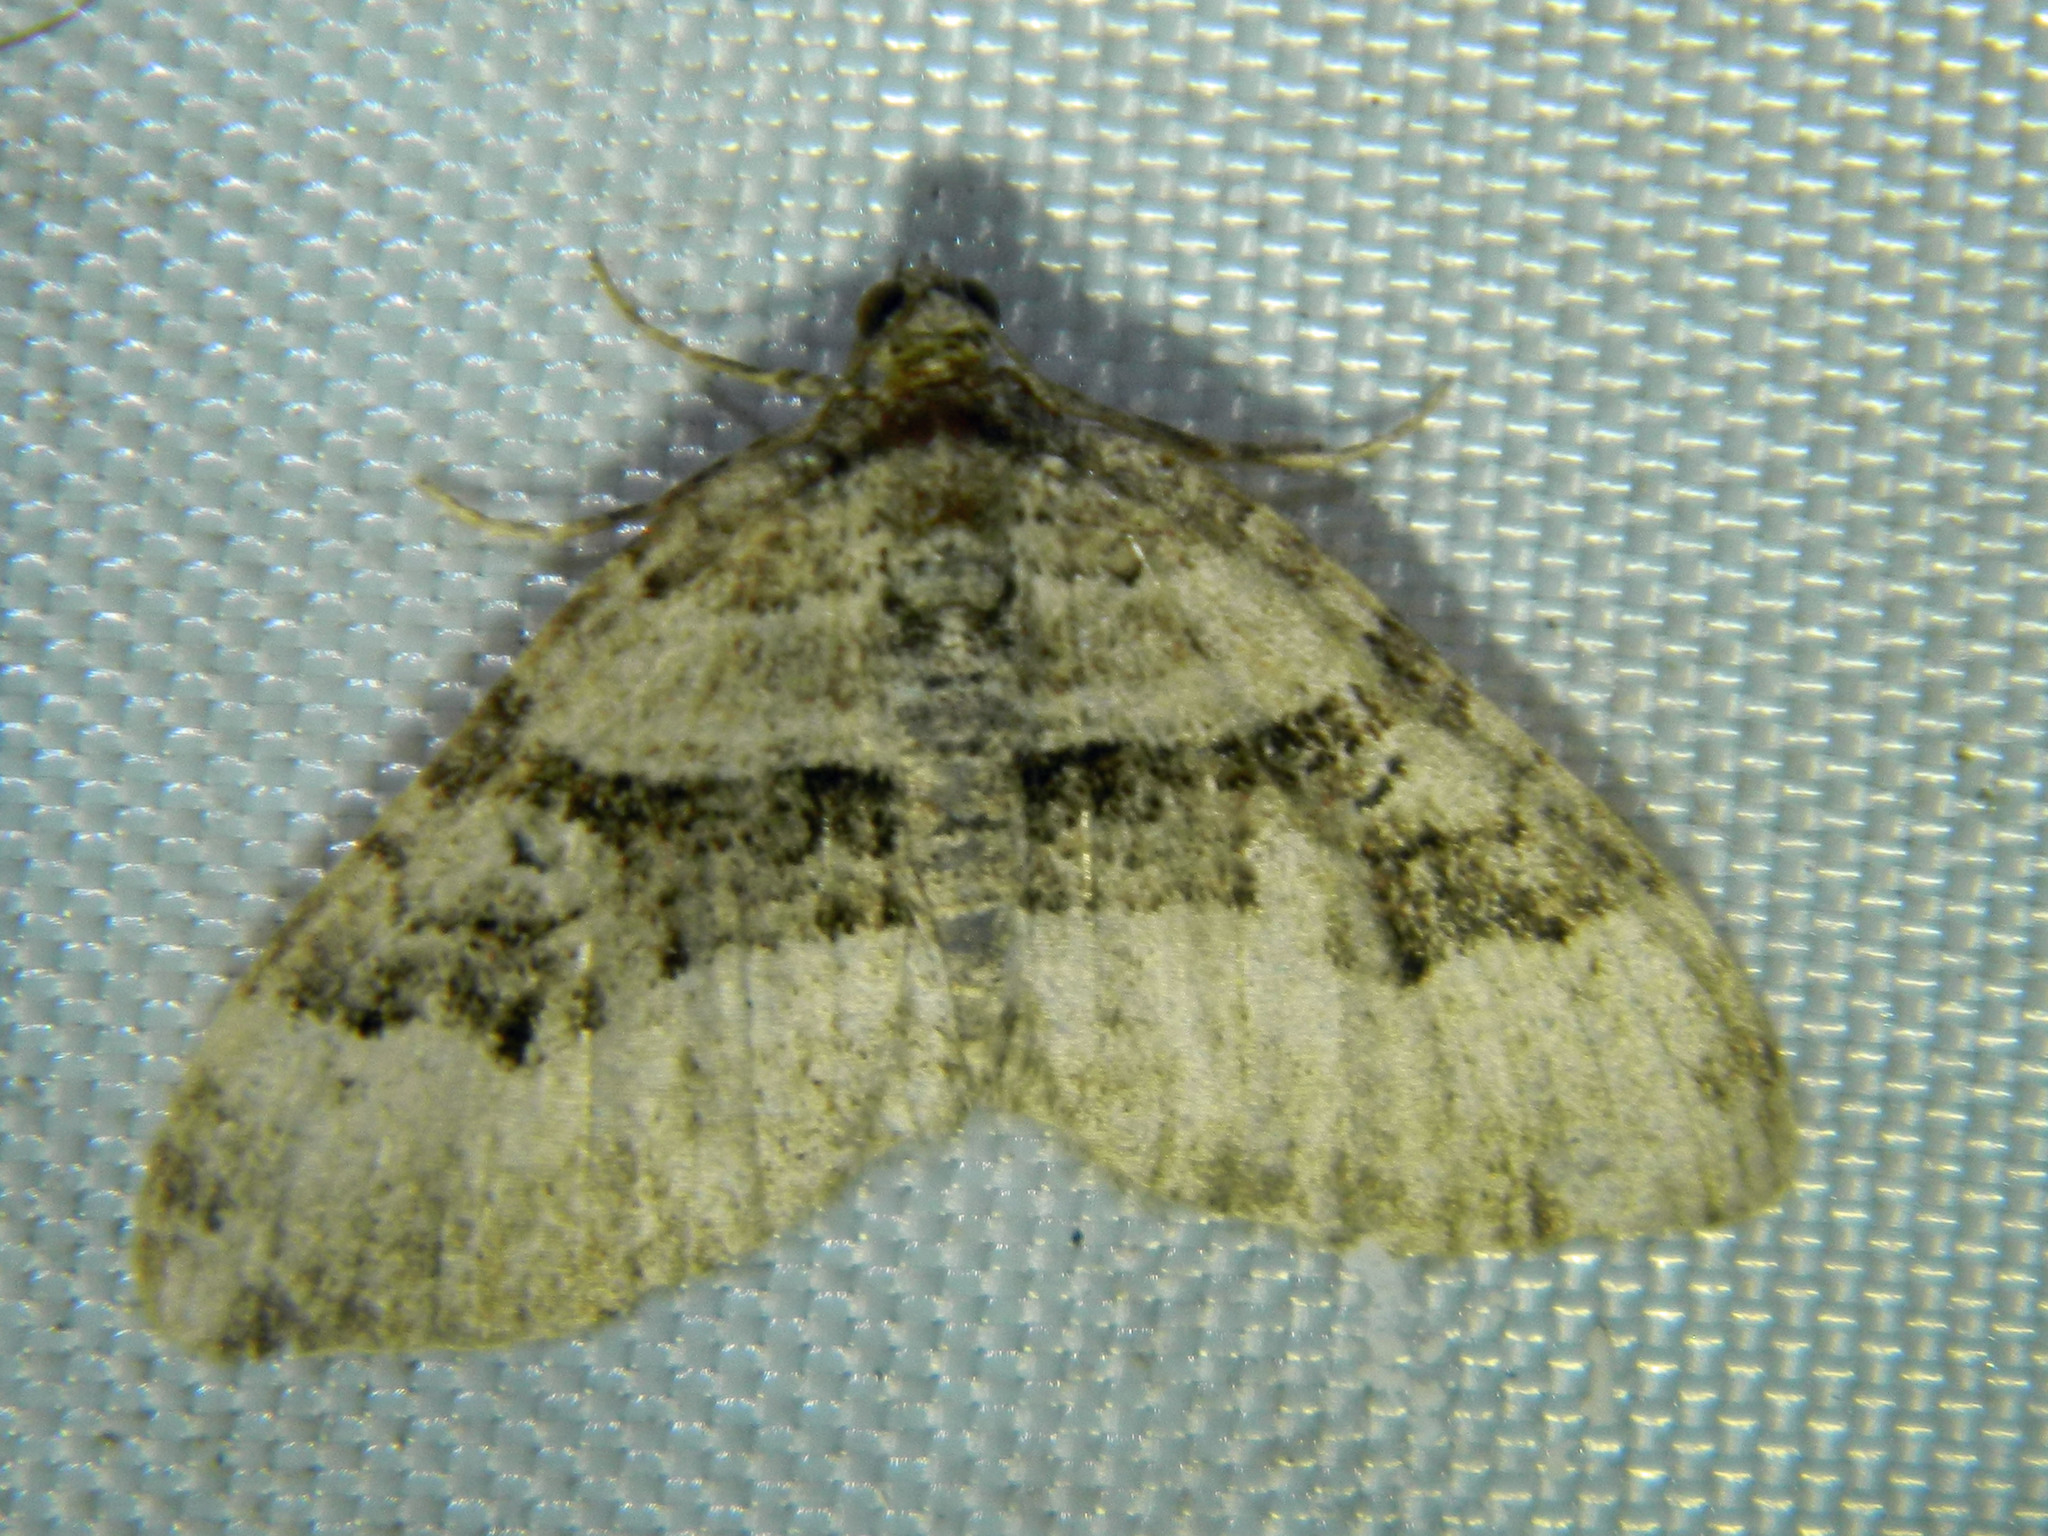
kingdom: Animalia
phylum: Arthropoda
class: Insecta
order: Lepidoptera
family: Geometridae
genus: Xanthorhoe
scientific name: Xanthorhoe lacustrata
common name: Toothed brown carpet
